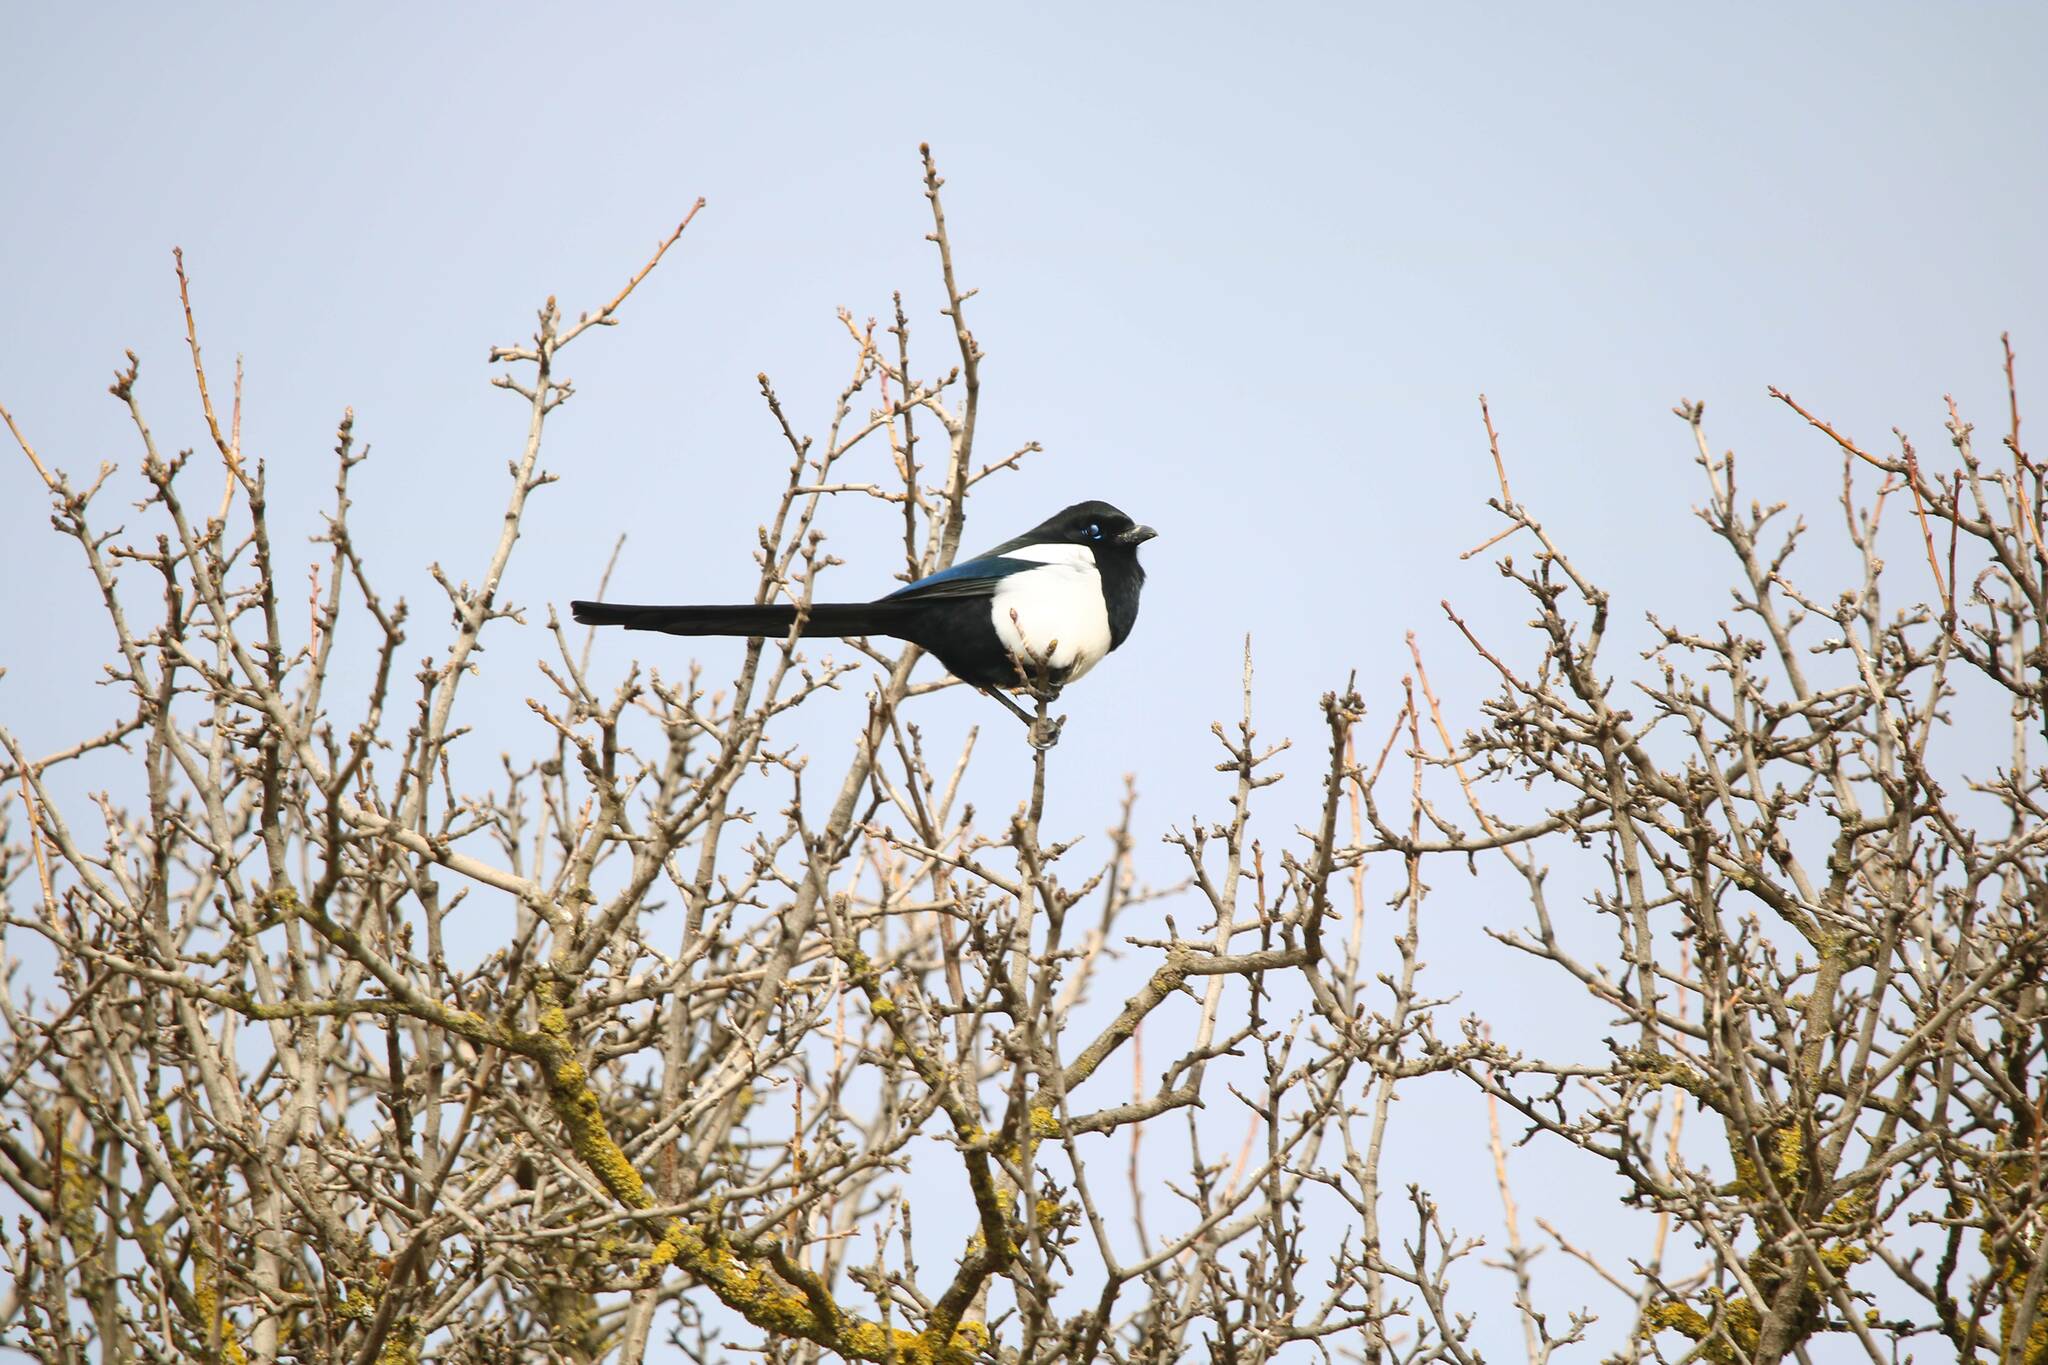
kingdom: Animalia
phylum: Chordata
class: Aves
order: Passeriformes
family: Corvidae
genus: Pica
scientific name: Pica mauritanica
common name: Maghreb magpie
